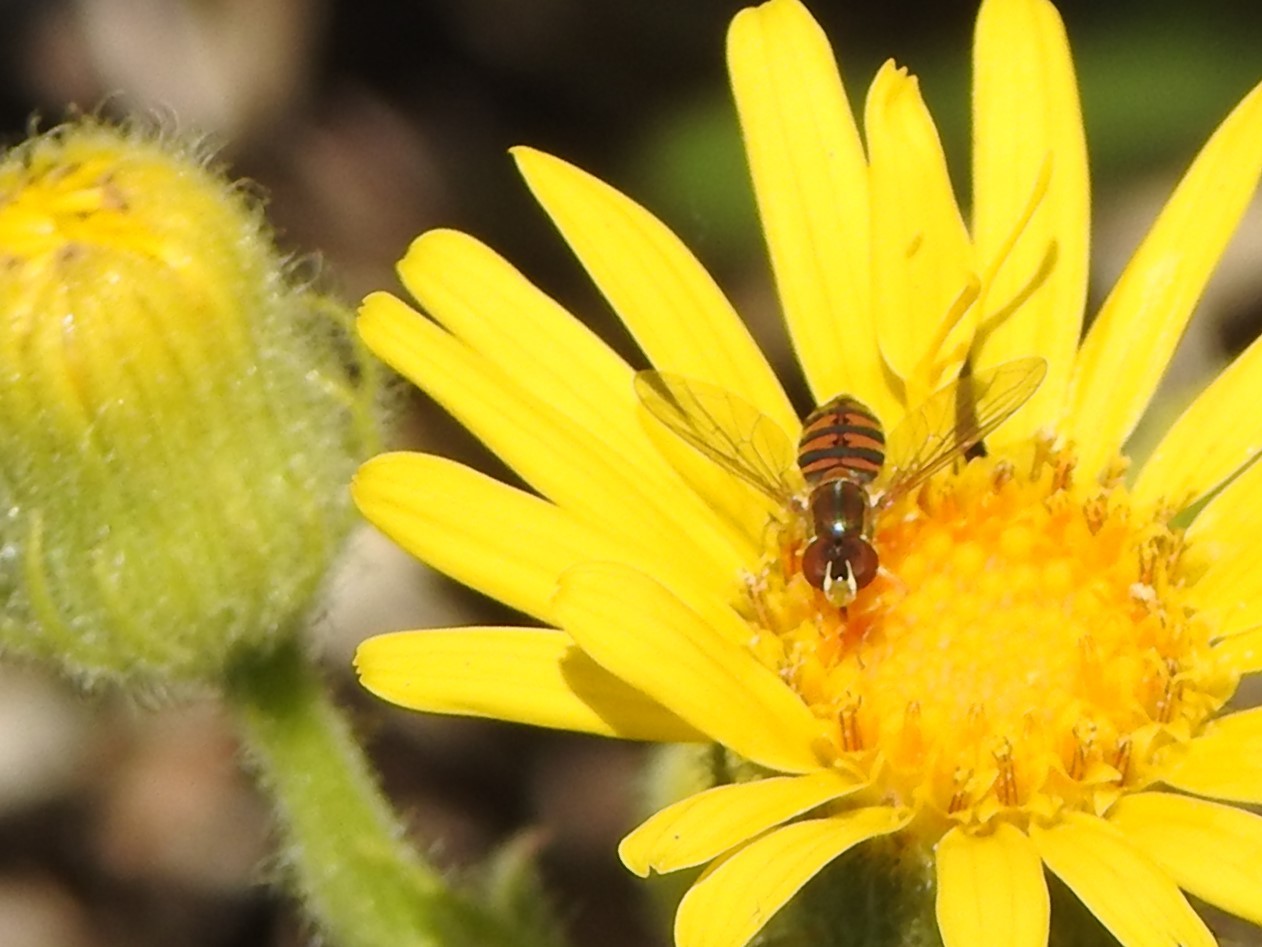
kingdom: Animalia
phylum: Arthropoda
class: Insecta
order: Diptera
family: Syrphidae
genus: Toxomerus
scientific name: Toxomerus
